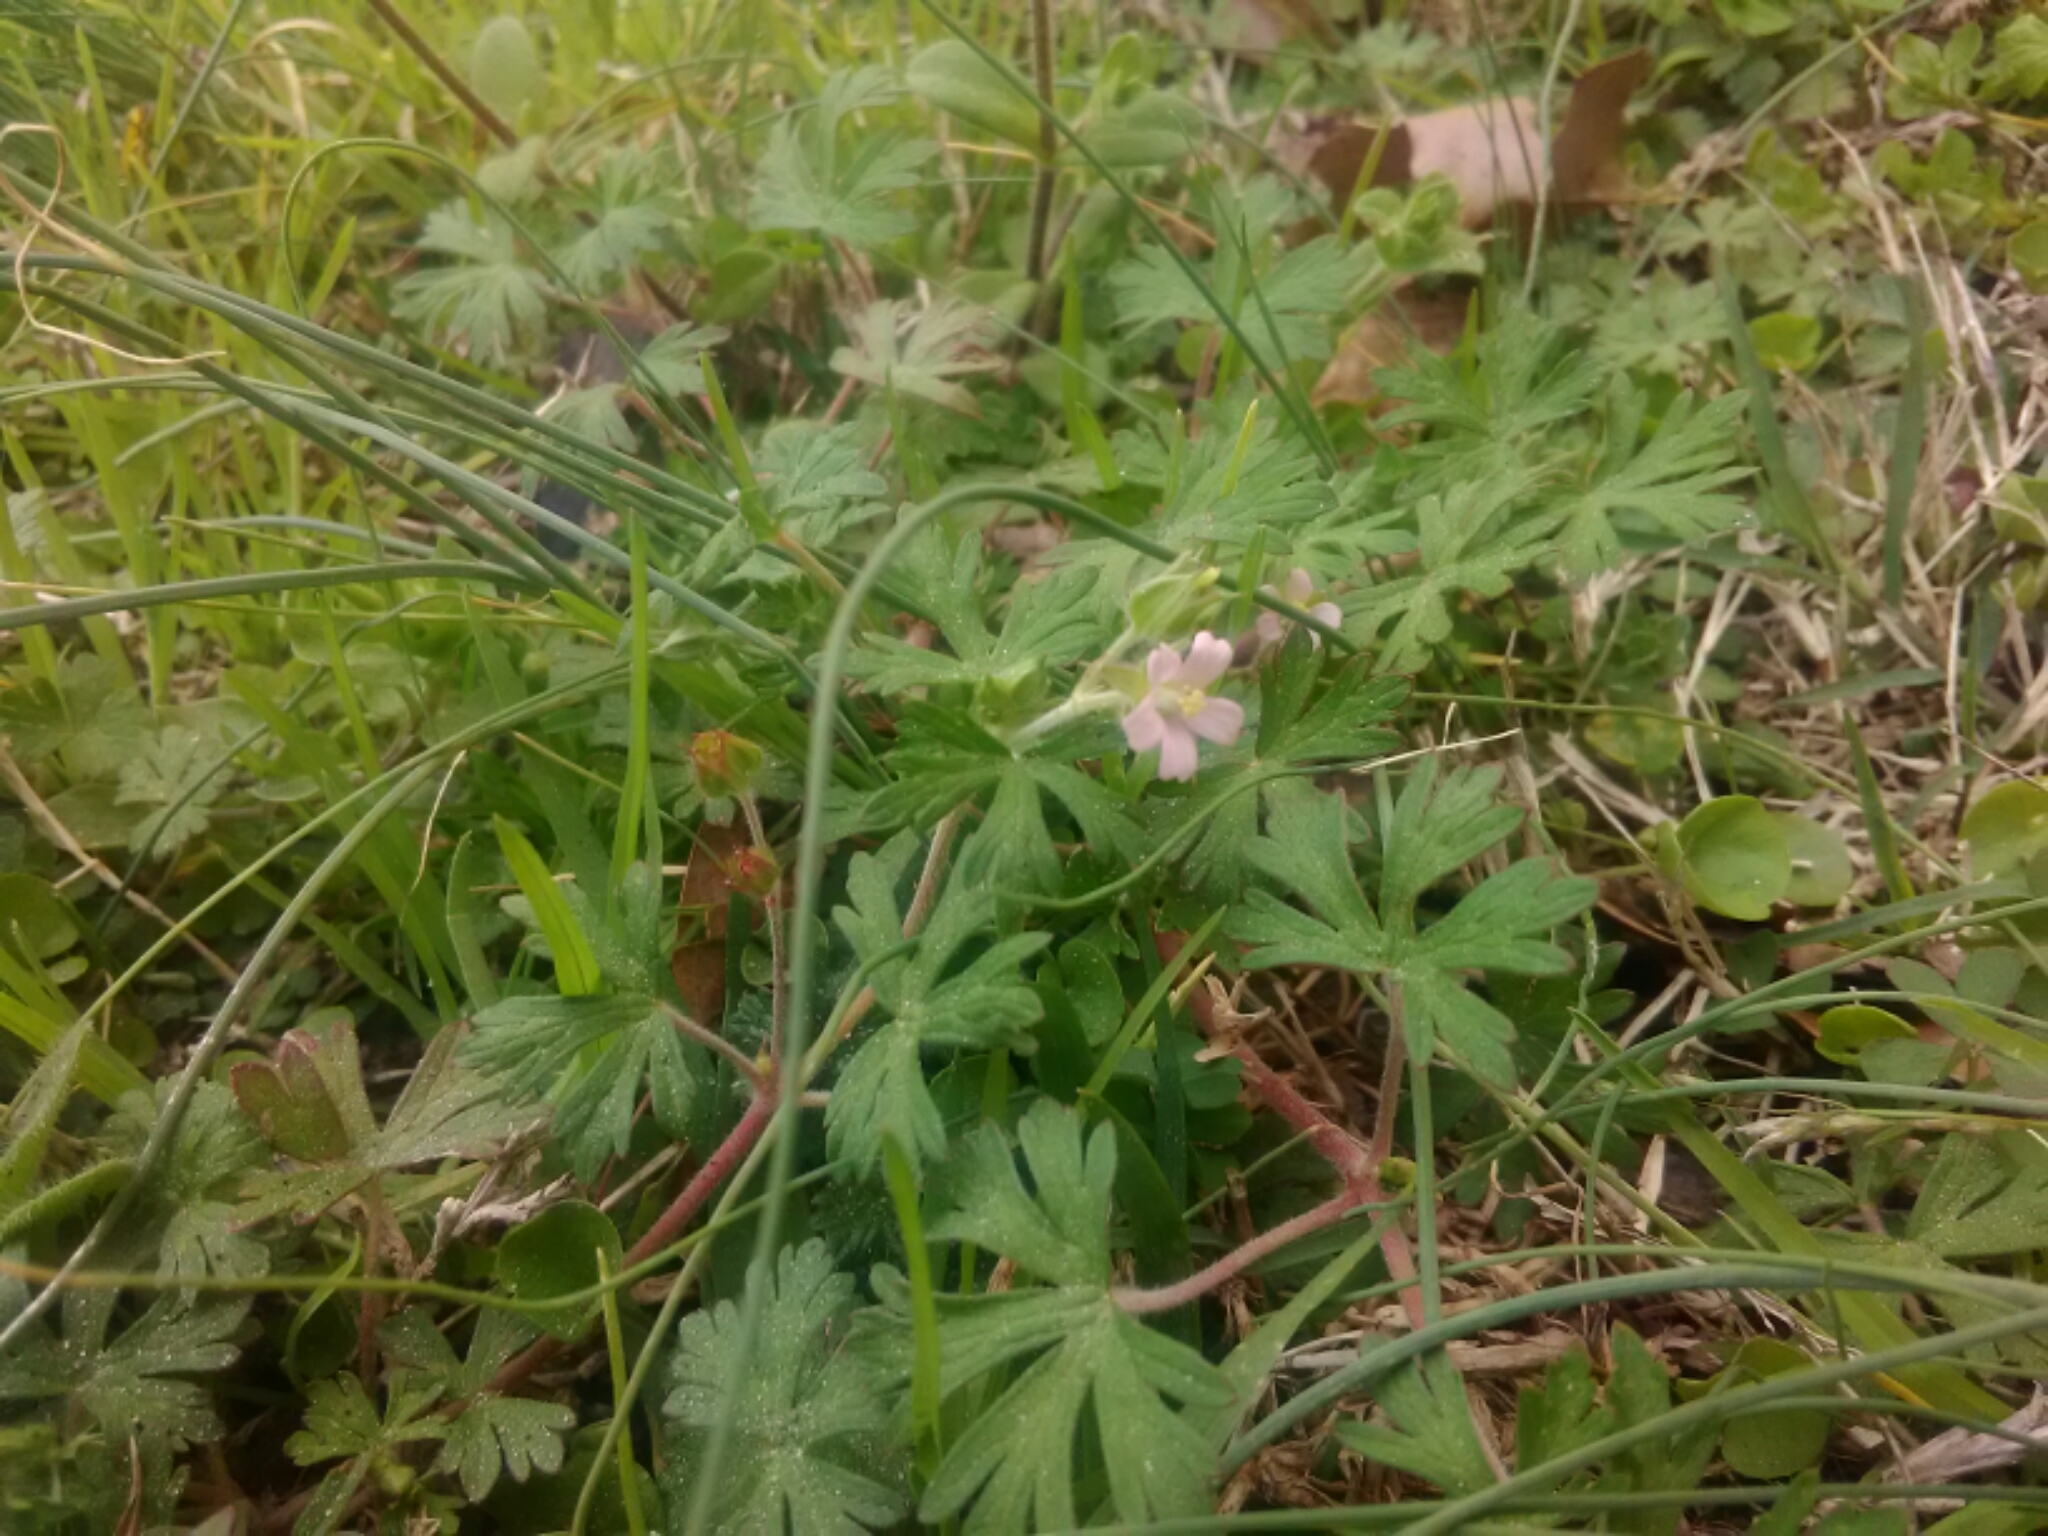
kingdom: Plantae
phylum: Tracheophyta
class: Magnoliopsida
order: Geraniales
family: Geraniaceae
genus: Geranium
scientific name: Geranium carolinianum
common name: Carolina crane's-bill
